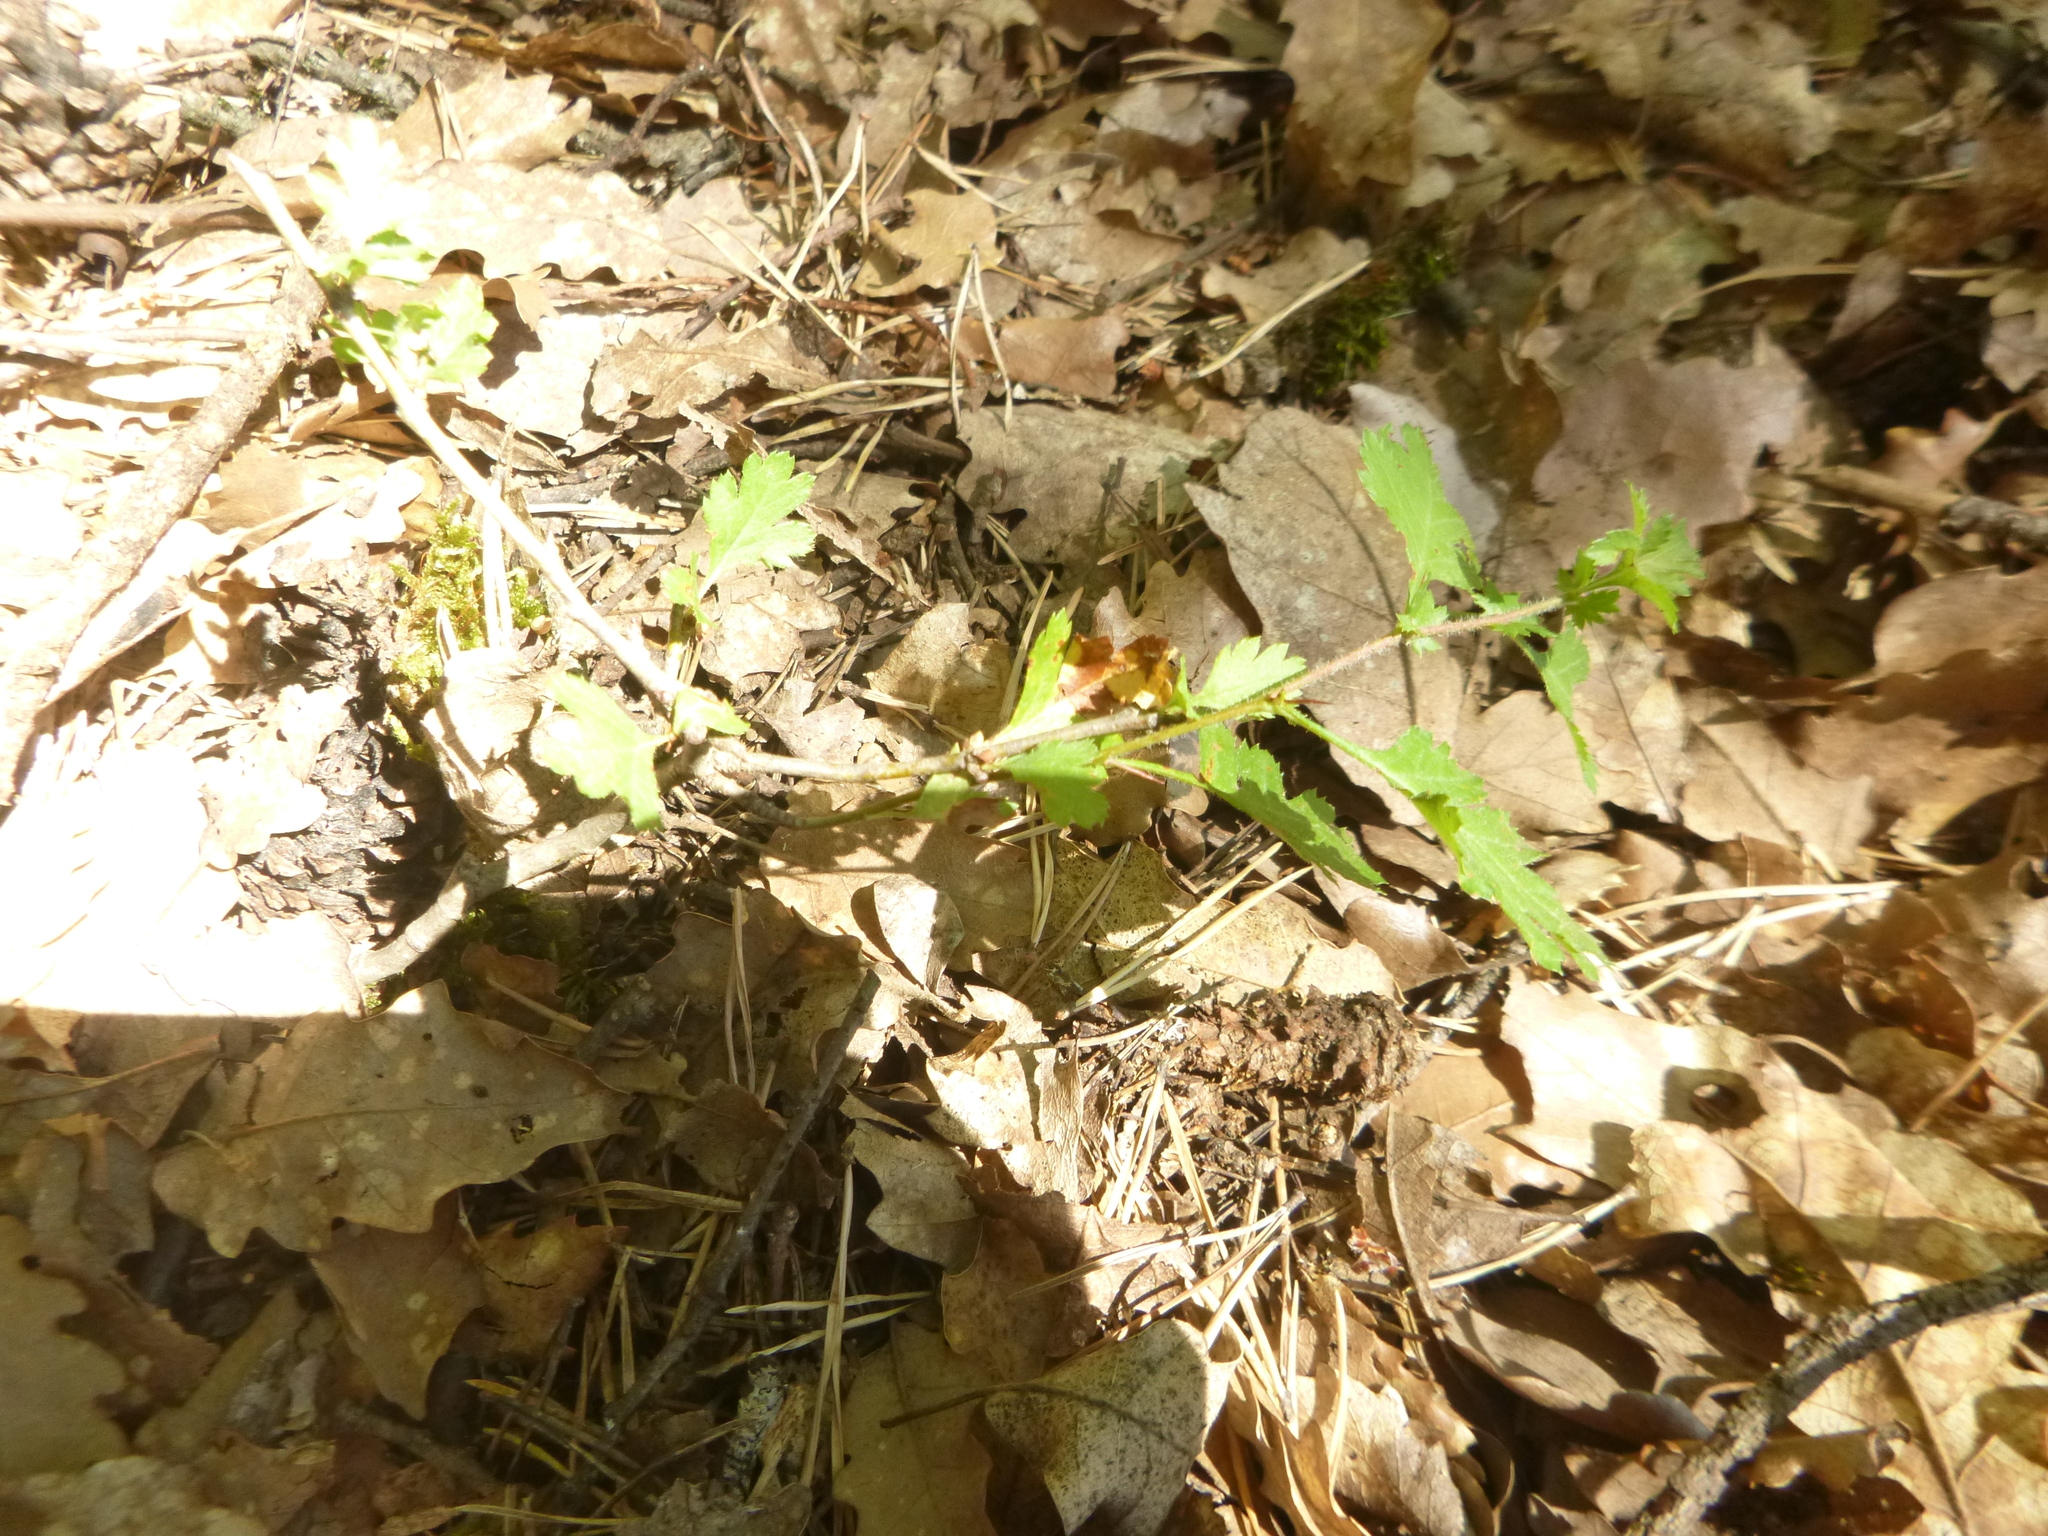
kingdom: Plantae
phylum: Tracheophyta
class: Magnoliopsida
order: Rosales
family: Rosaceae
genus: Crataegus
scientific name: Crataegus monogyna
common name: Hawthorn
